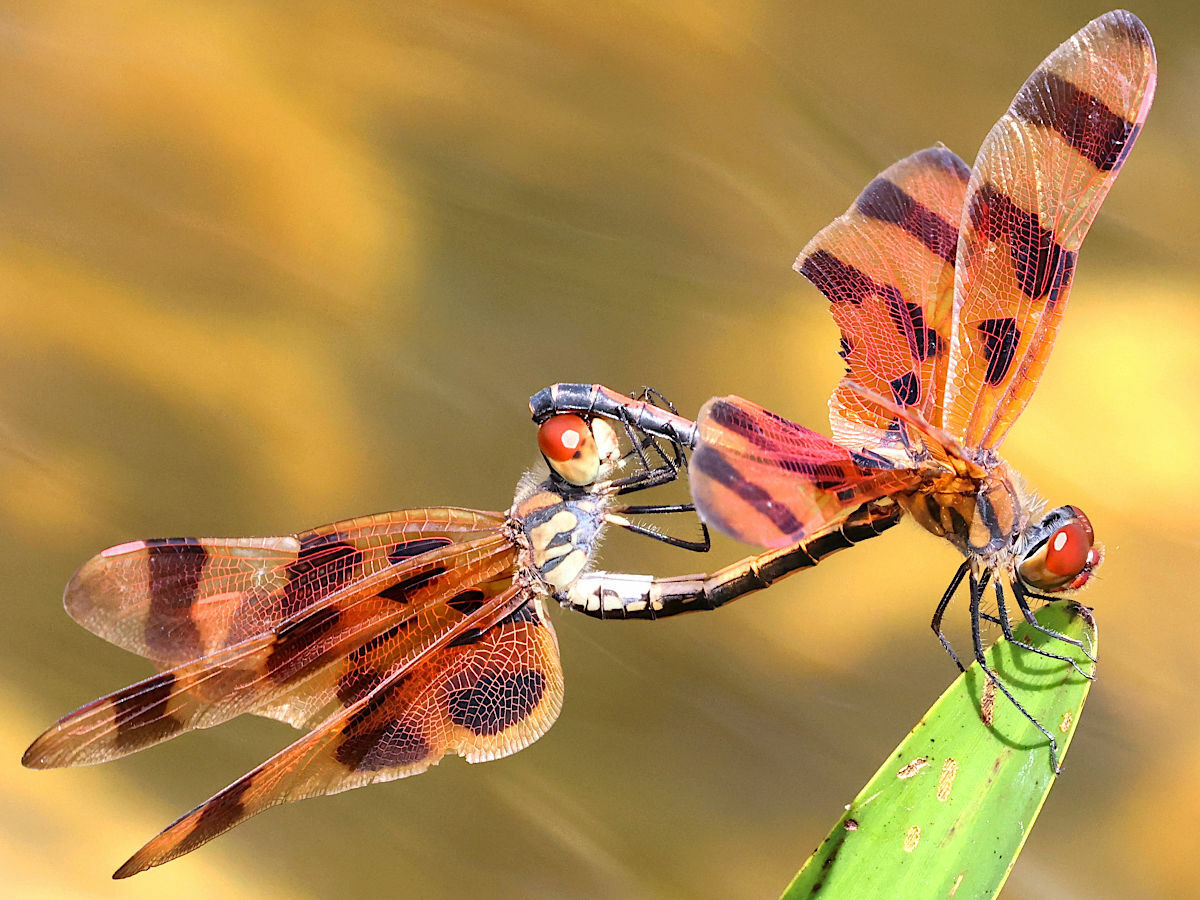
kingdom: Animalia
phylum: Arthropoda
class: Insecta
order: Odonata
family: Libellulidae
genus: Celithemis
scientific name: Celithemis eponina
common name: Halloween pennant
